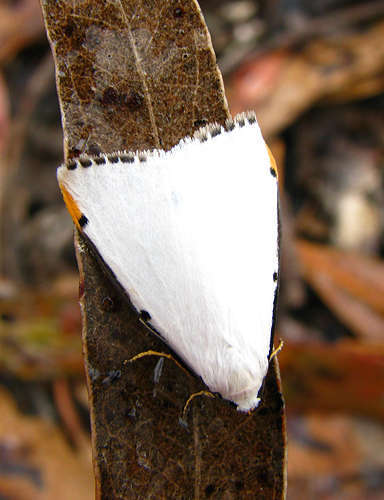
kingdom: Animalia
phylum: Arthropoda
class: Insecta
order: Lepidoptera
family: Erebidae
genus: Termessa
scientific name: Termessa nivosa
